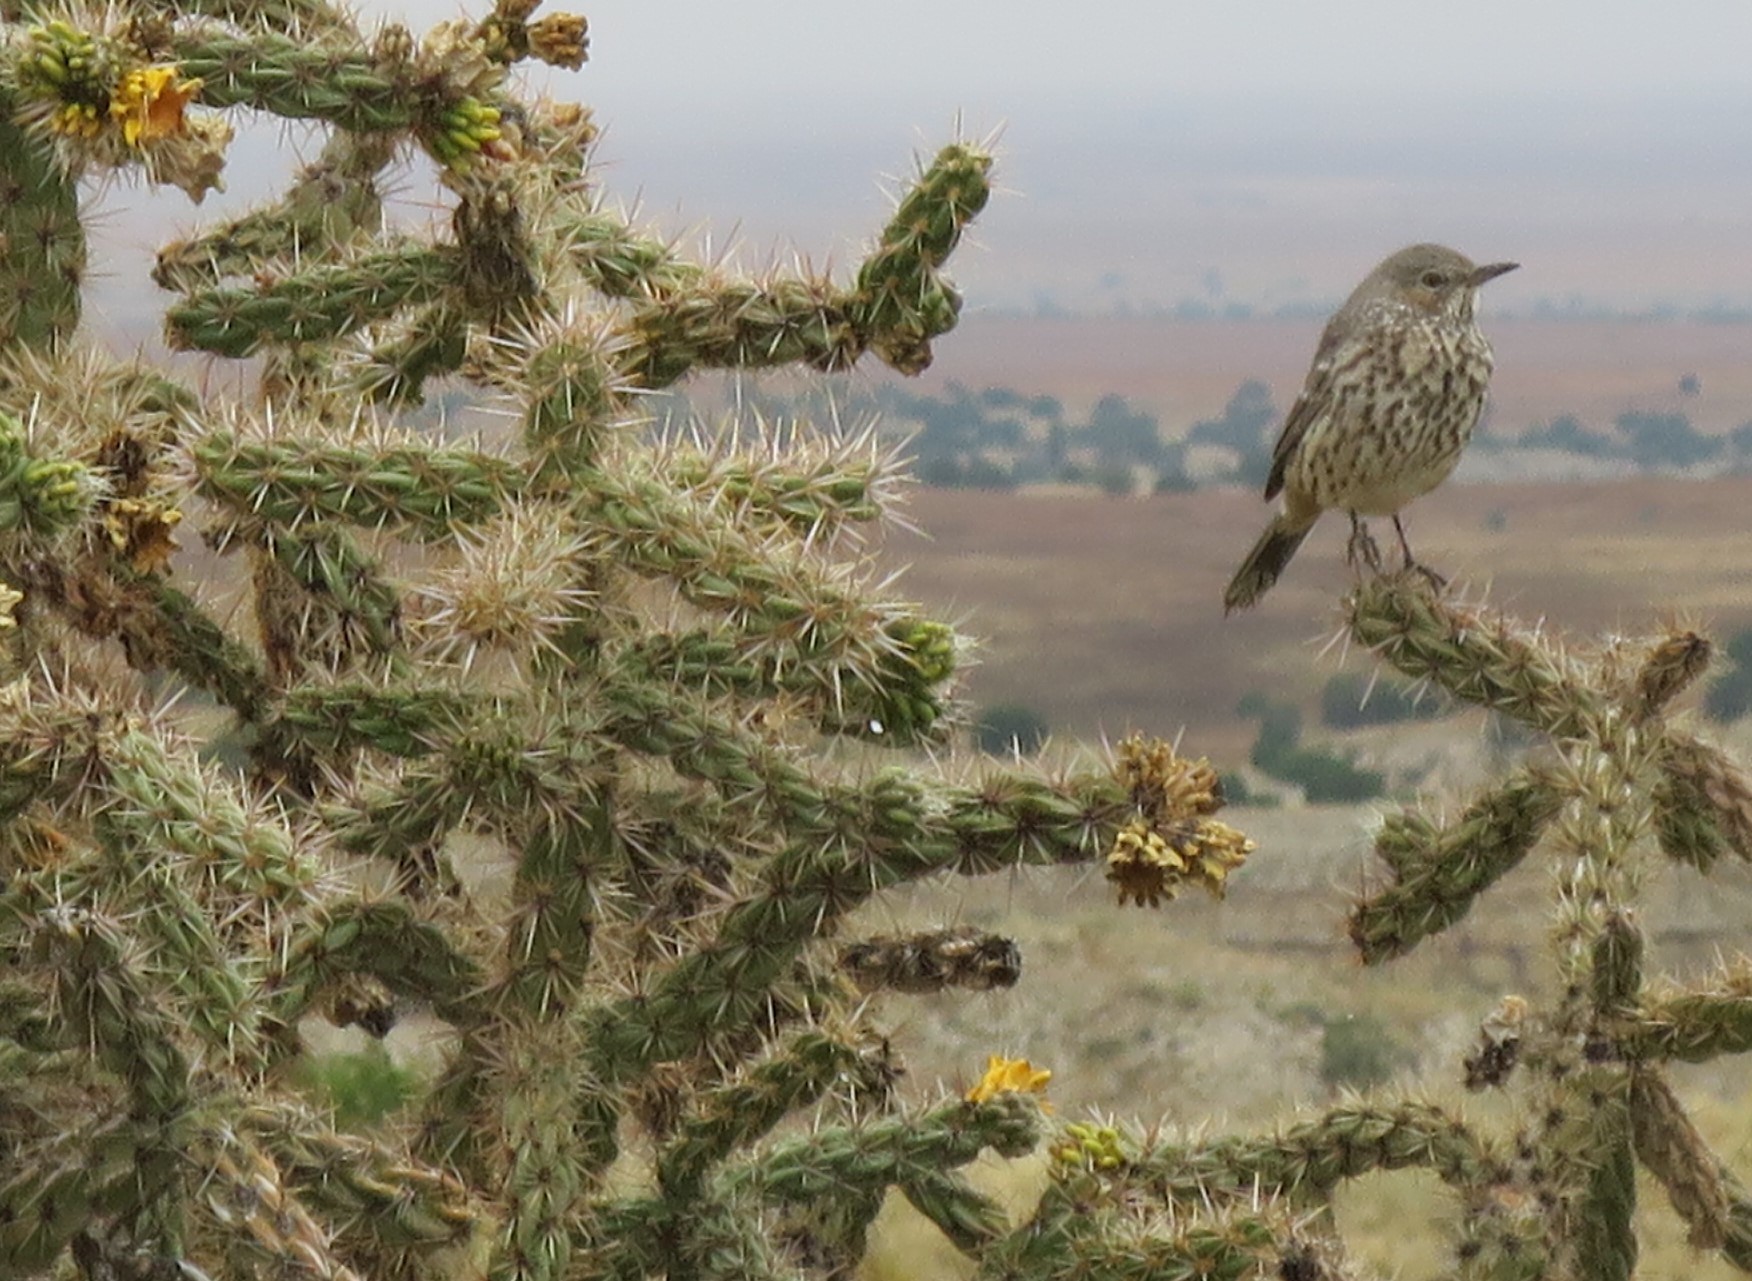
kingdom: Animalia
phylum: Chordata
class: Aves
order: Passeriformes
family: Mimidae
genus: Oreoscoptes
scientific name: Oreoscoptes montanus
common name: Sage thrasher
